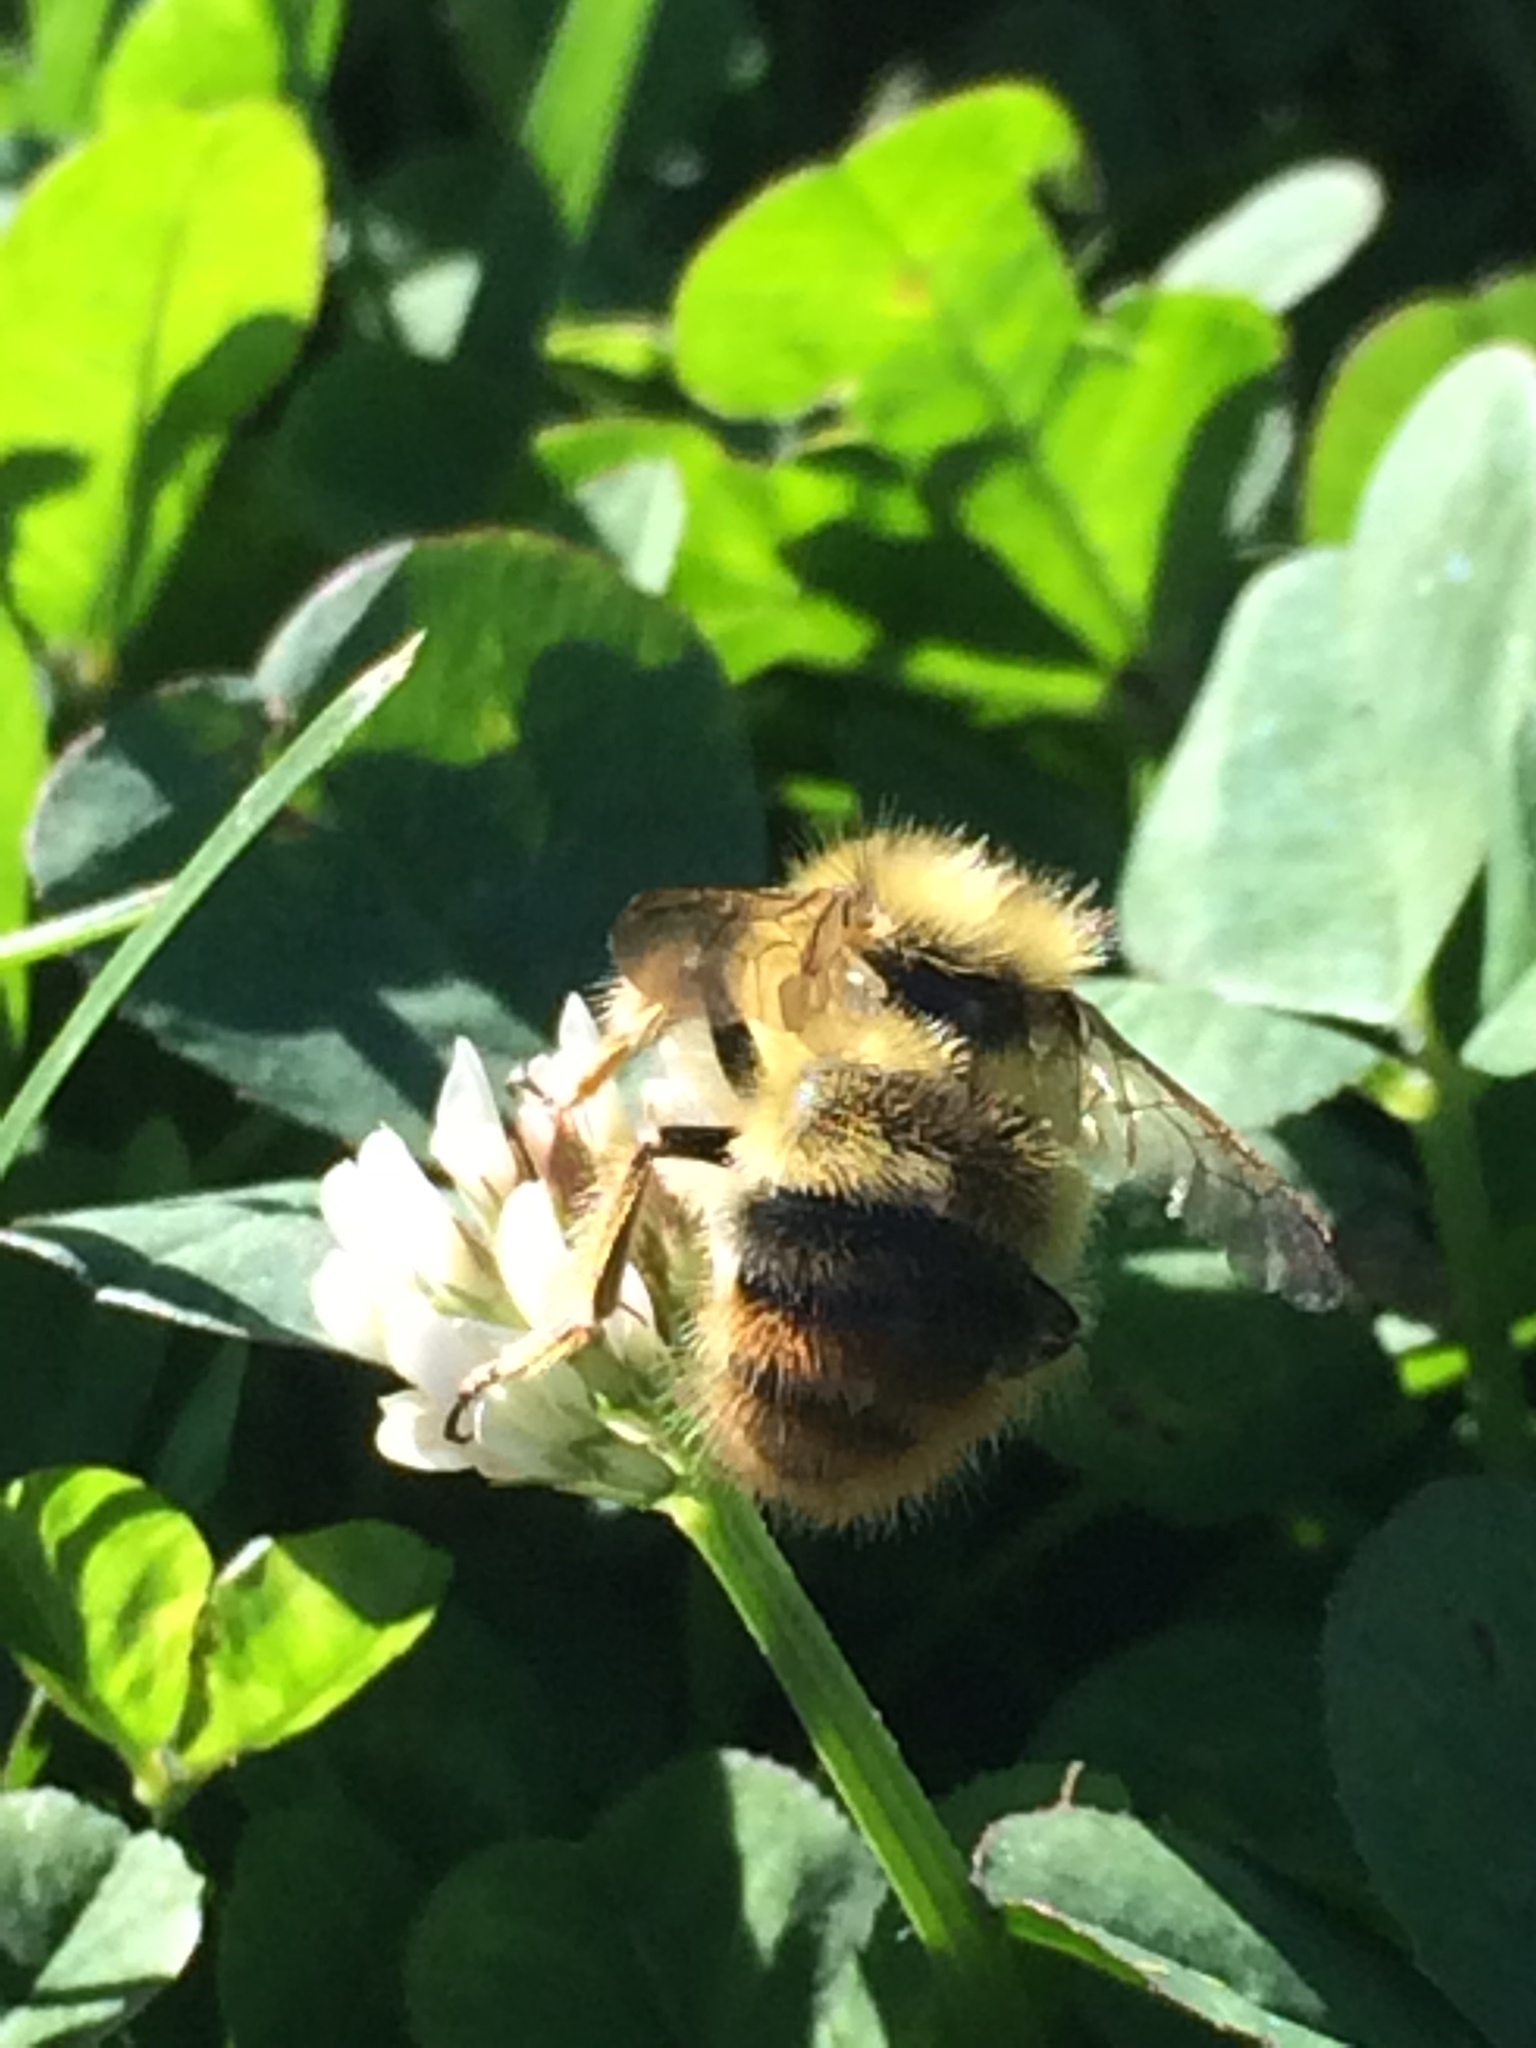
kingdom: Animalia
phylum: Arthropoda
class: Insecta
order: Hymenoptera
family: Apidae
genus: Bombus
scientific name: Bombus mixtus
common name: Fuzzy-horned bumble bee
